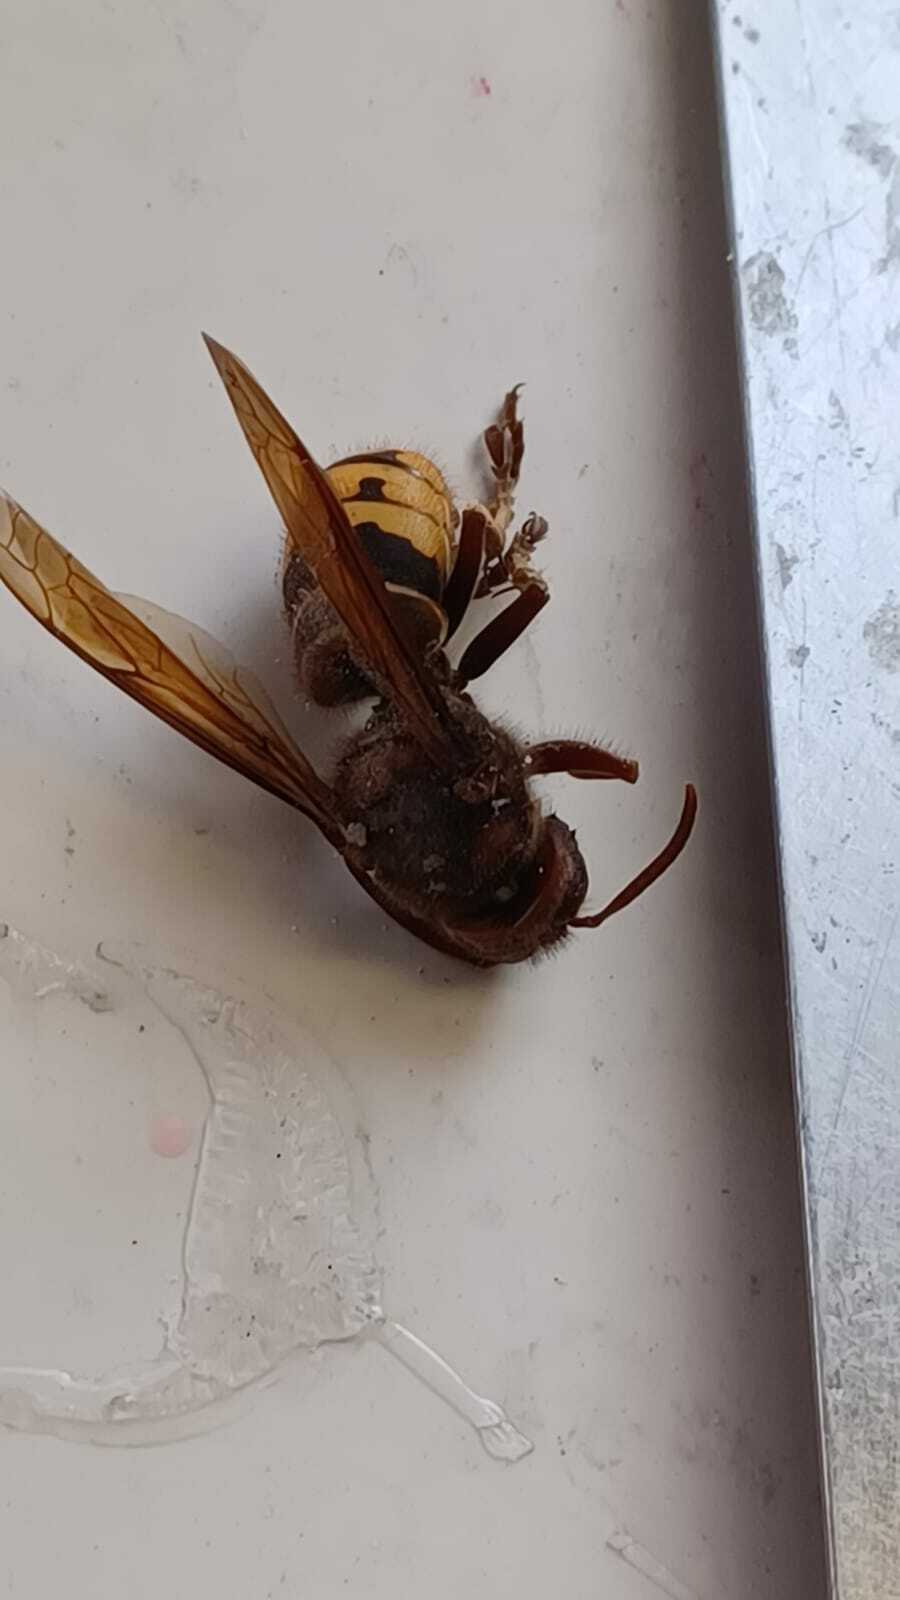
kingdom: Animalia
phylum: Arthropoda
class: Insecta
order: Hymenoptera
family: Vespidae
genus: Vespa
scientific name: Vespa crabro
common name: Hornet
